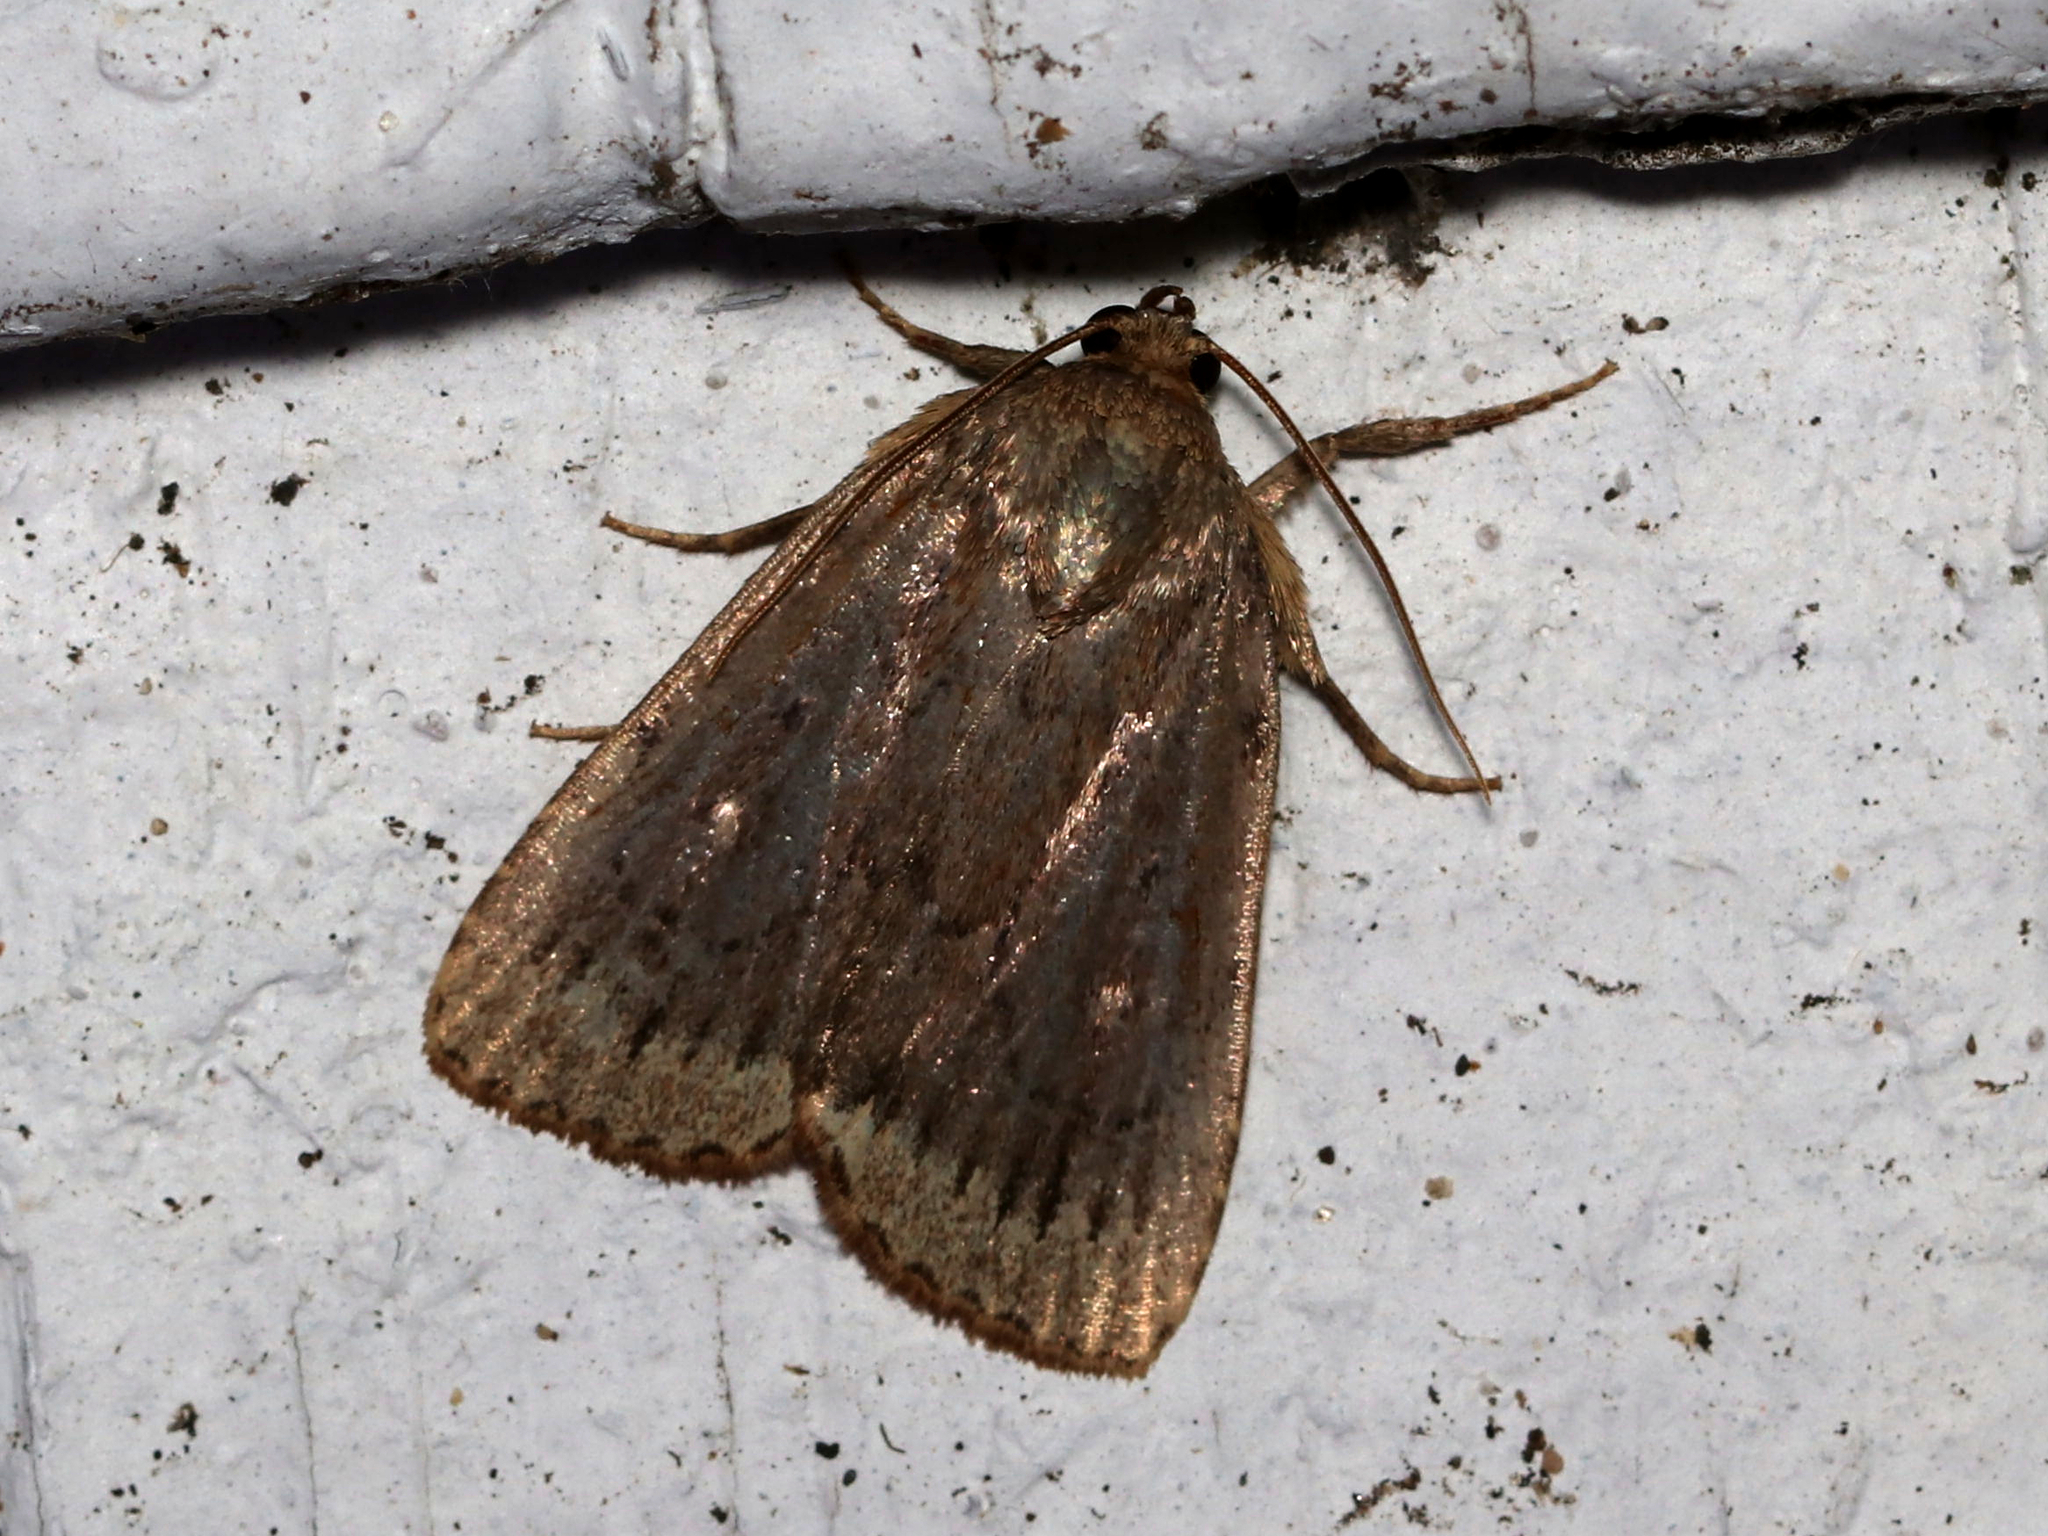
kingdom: Animalia
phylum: Arthropoda
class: Insecta
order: Lepidoptera
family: Noctuidae
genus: Amphipyra
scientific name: Amphipyra glabella
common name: Smooth amphipyra moth
